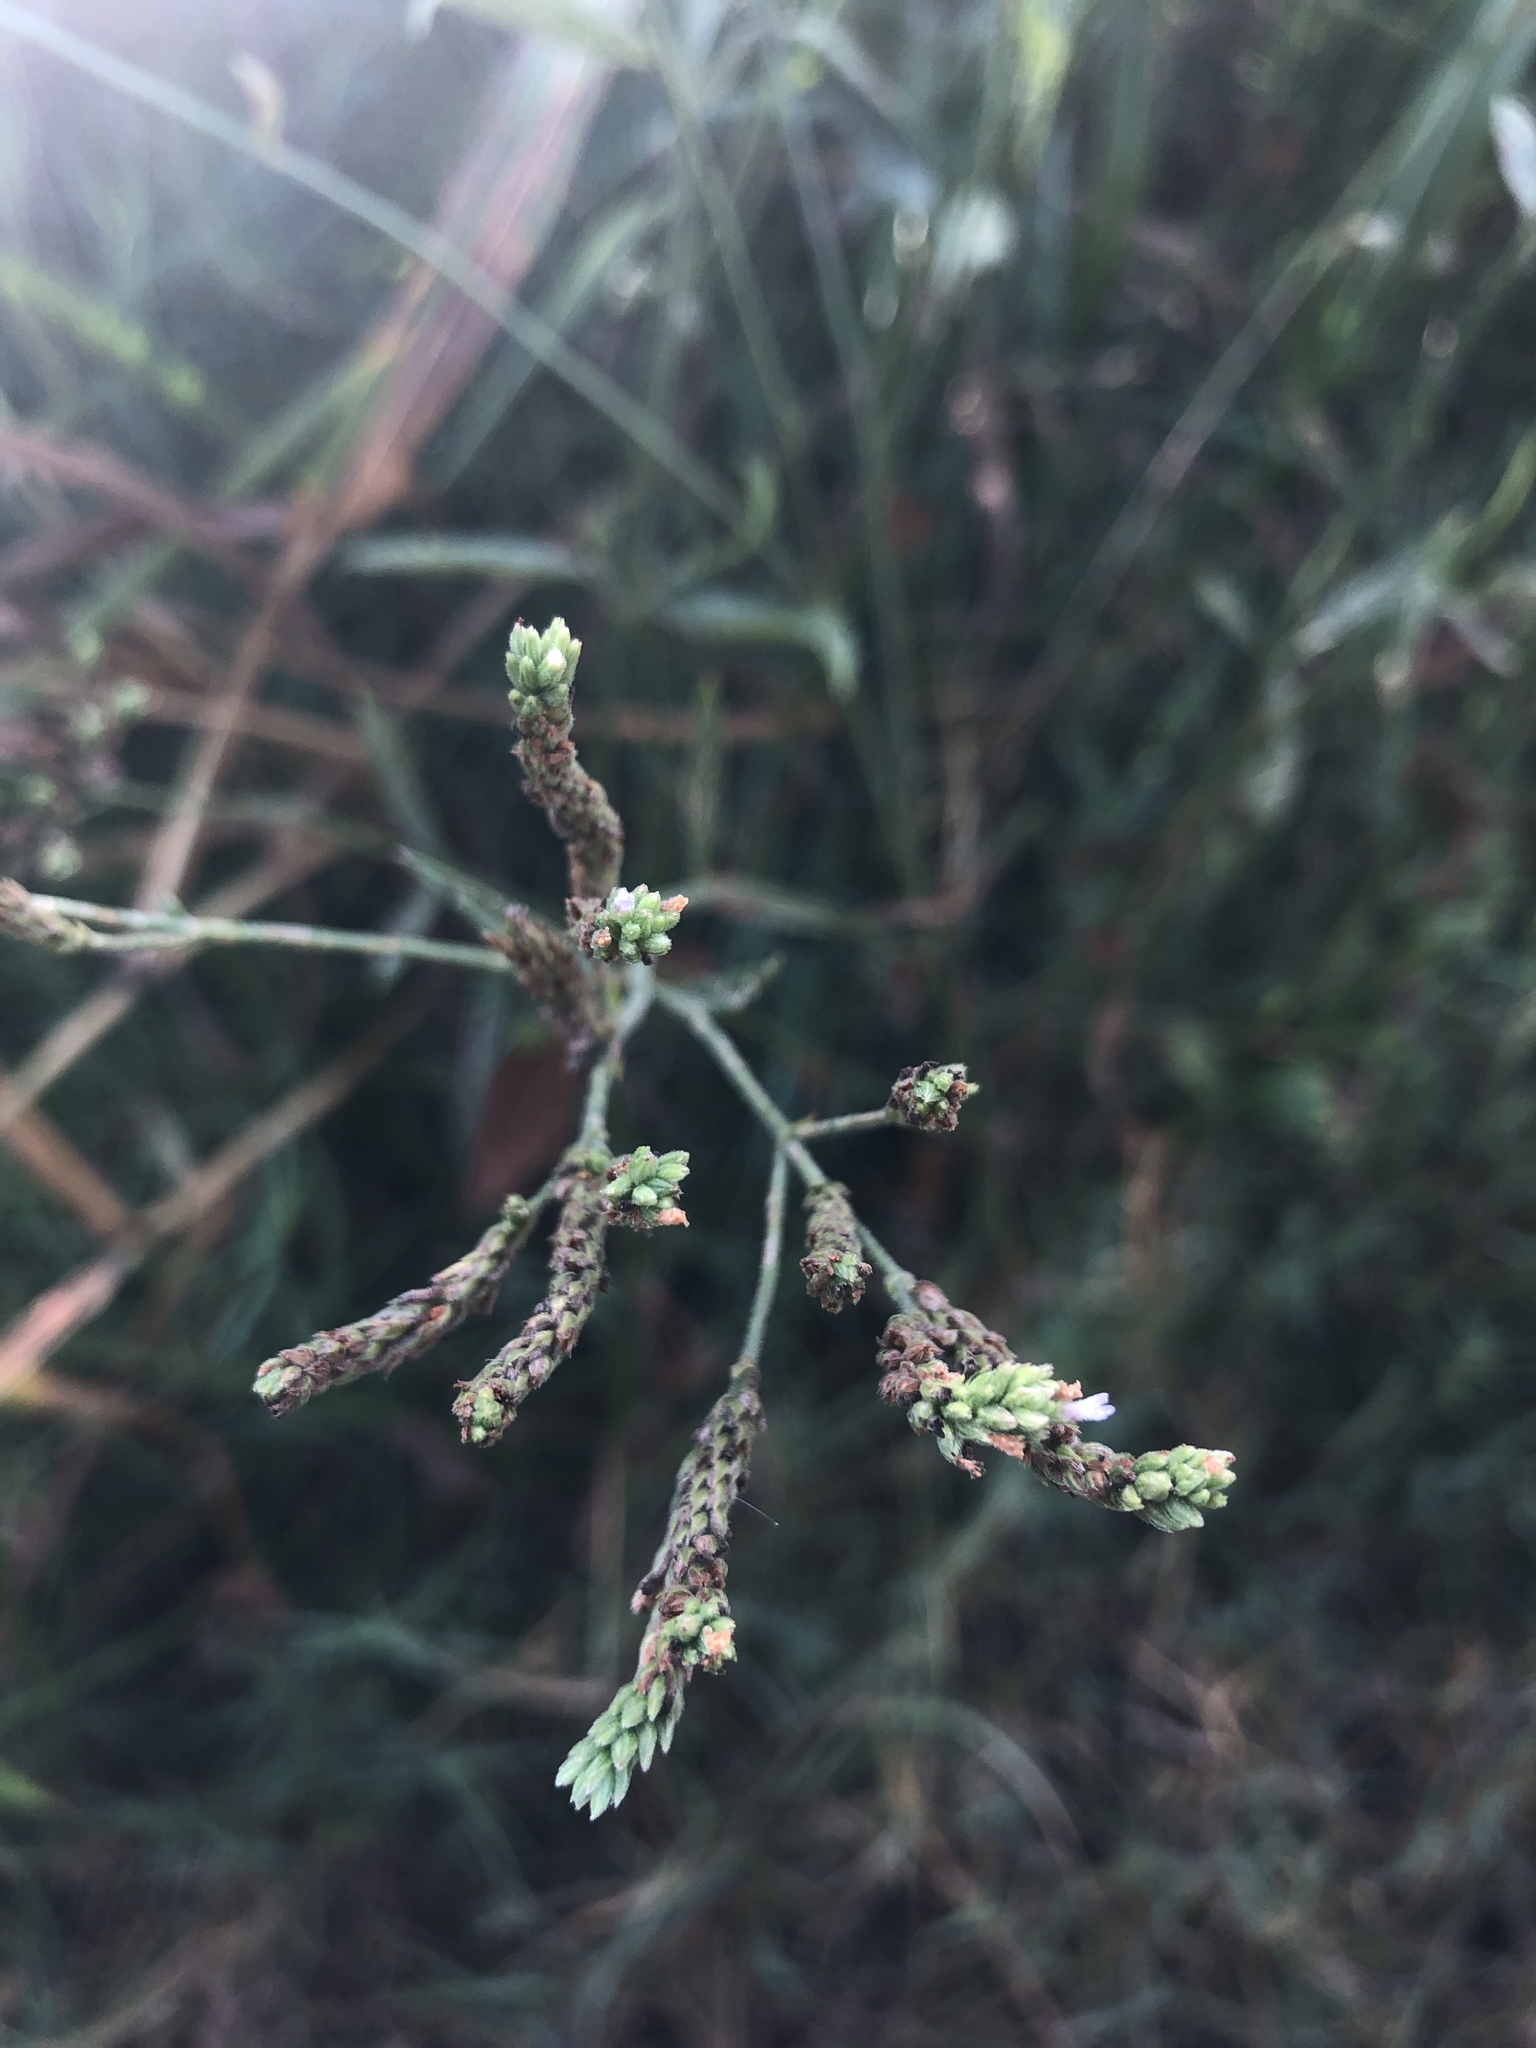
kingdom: Plantae
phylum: Tracheophyta
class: Magnoliopsida
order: Lamiales
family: Verbenaceae
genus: Verbena
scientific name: Verbena brasiliensis
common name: Brazilian vervain
